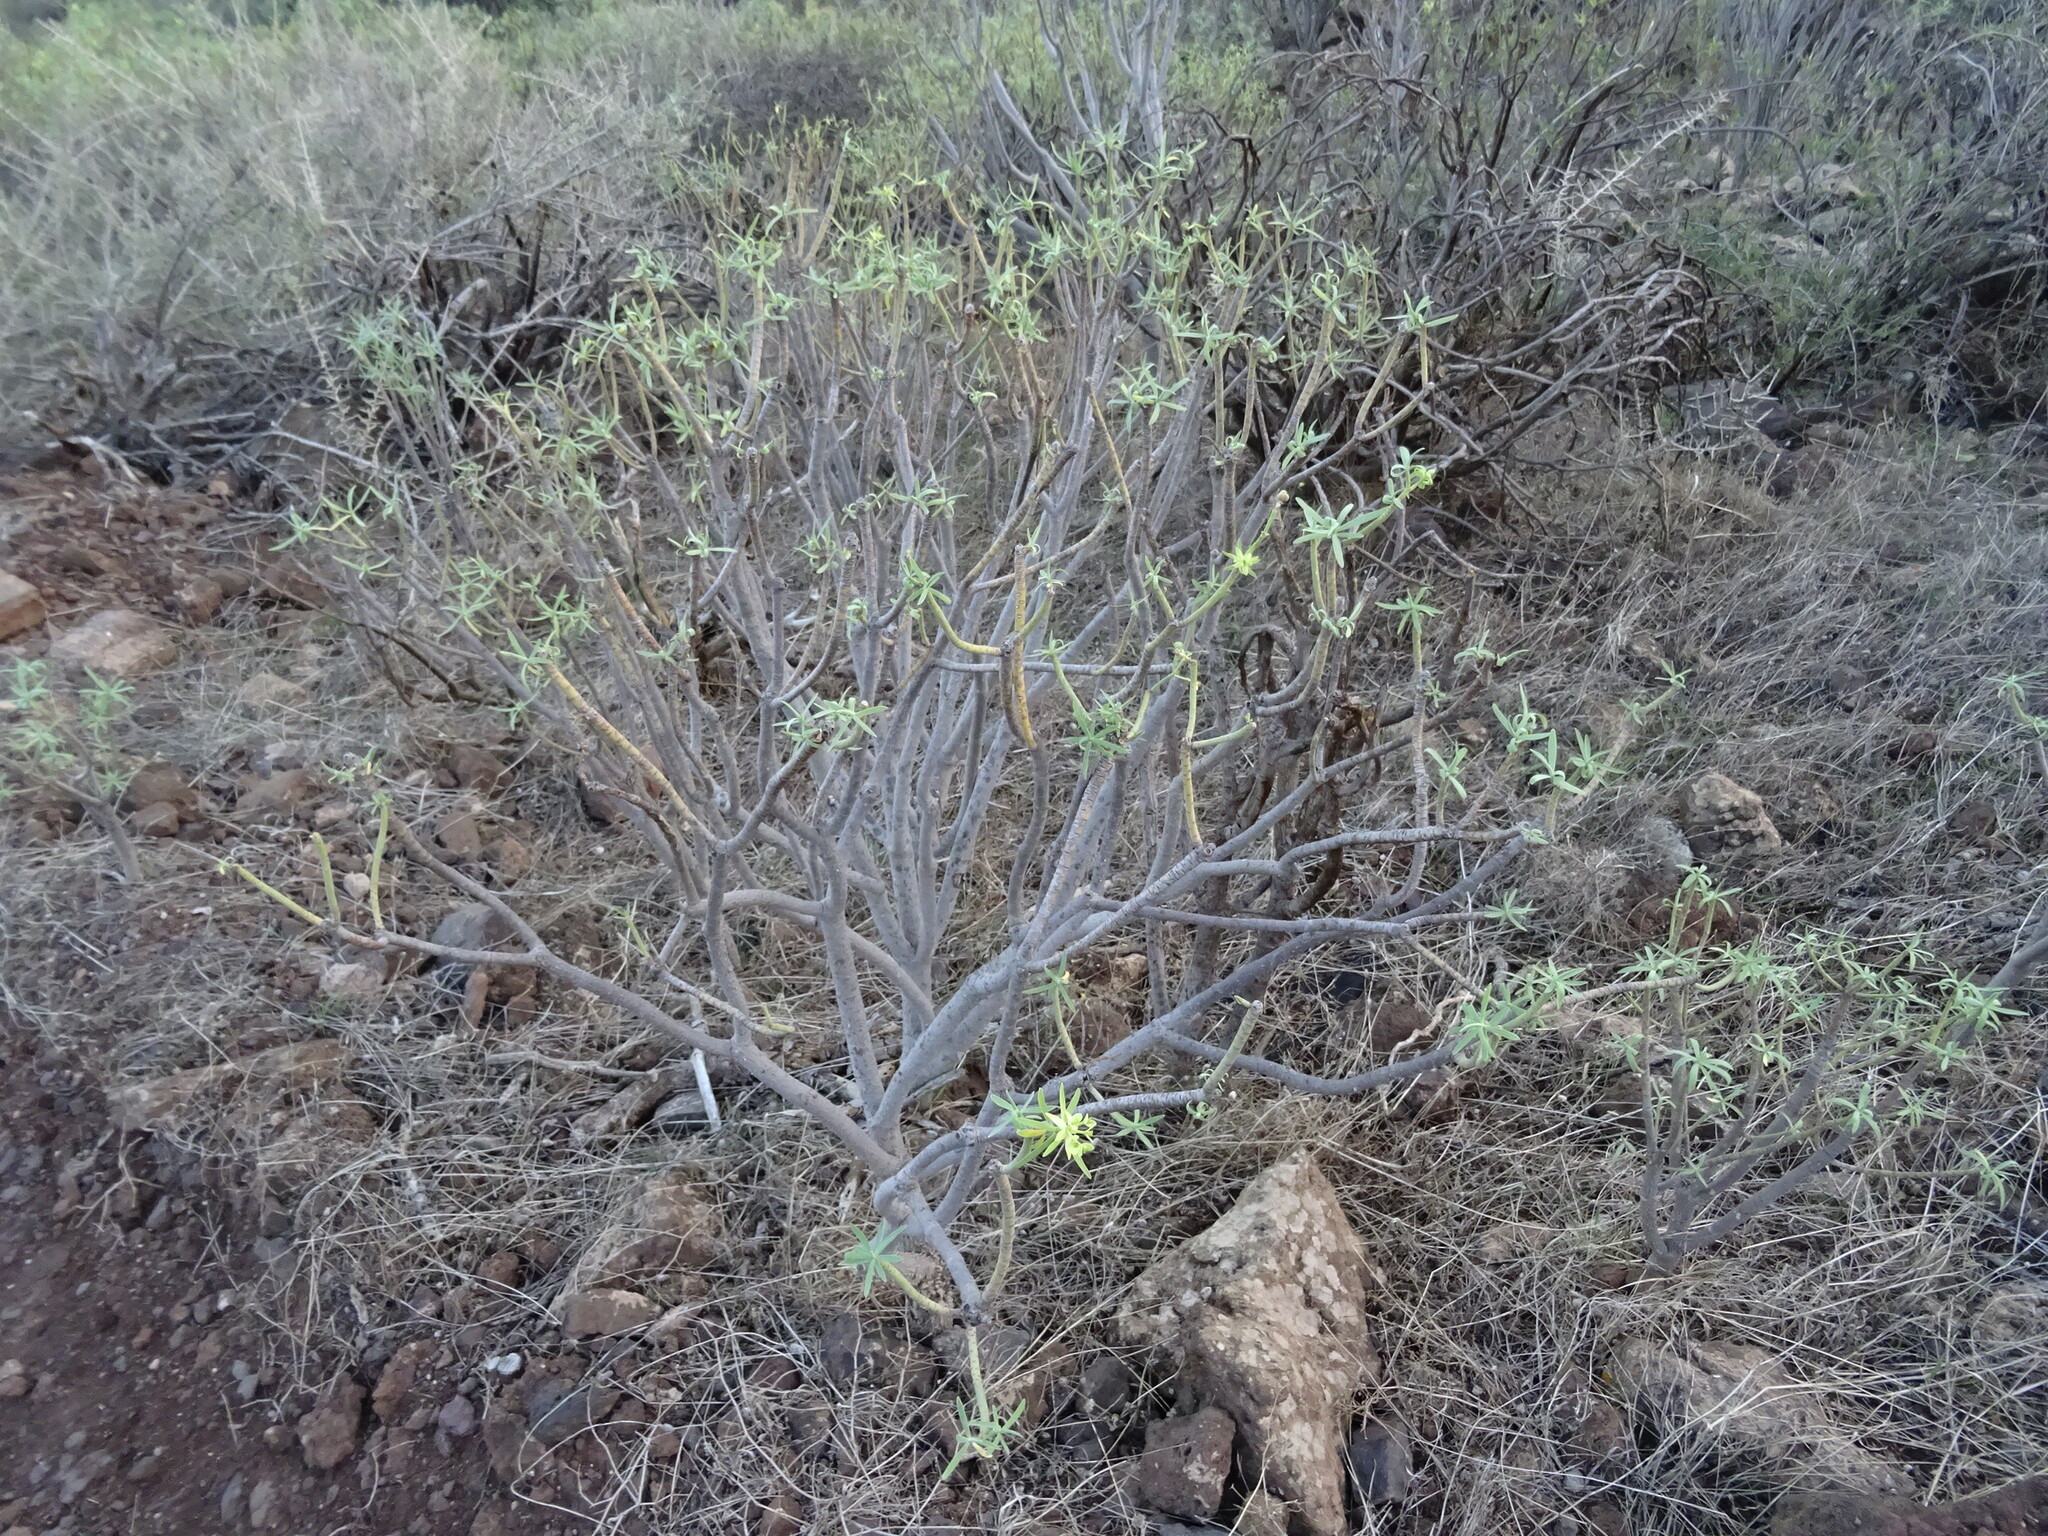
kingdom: Plantae
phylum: Tracheophyta
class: Magnoliopsida
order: Malpighiales
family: Euphorbiaceae
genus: Euphorbia
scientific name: Euphorbia regis-jubae
